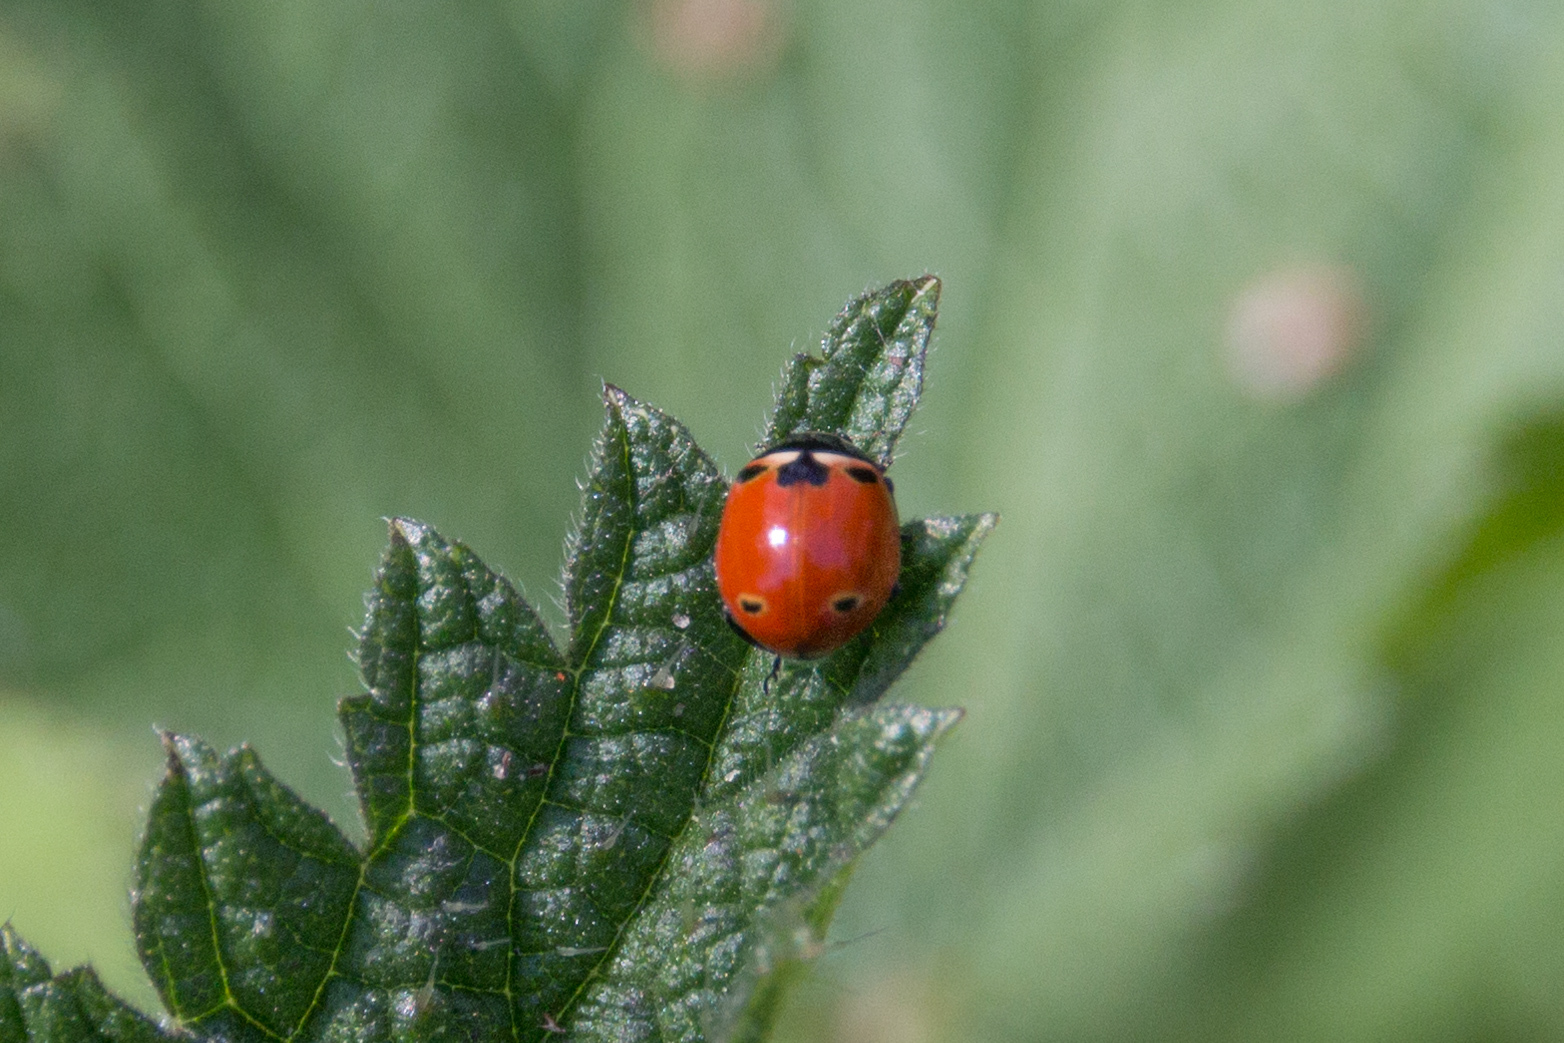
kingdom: Animalia
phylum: Arthropoda
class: Insecta
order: Coleoptera
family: Coccinellidae
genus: Coccinella
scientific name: Coccinella trifasciata
